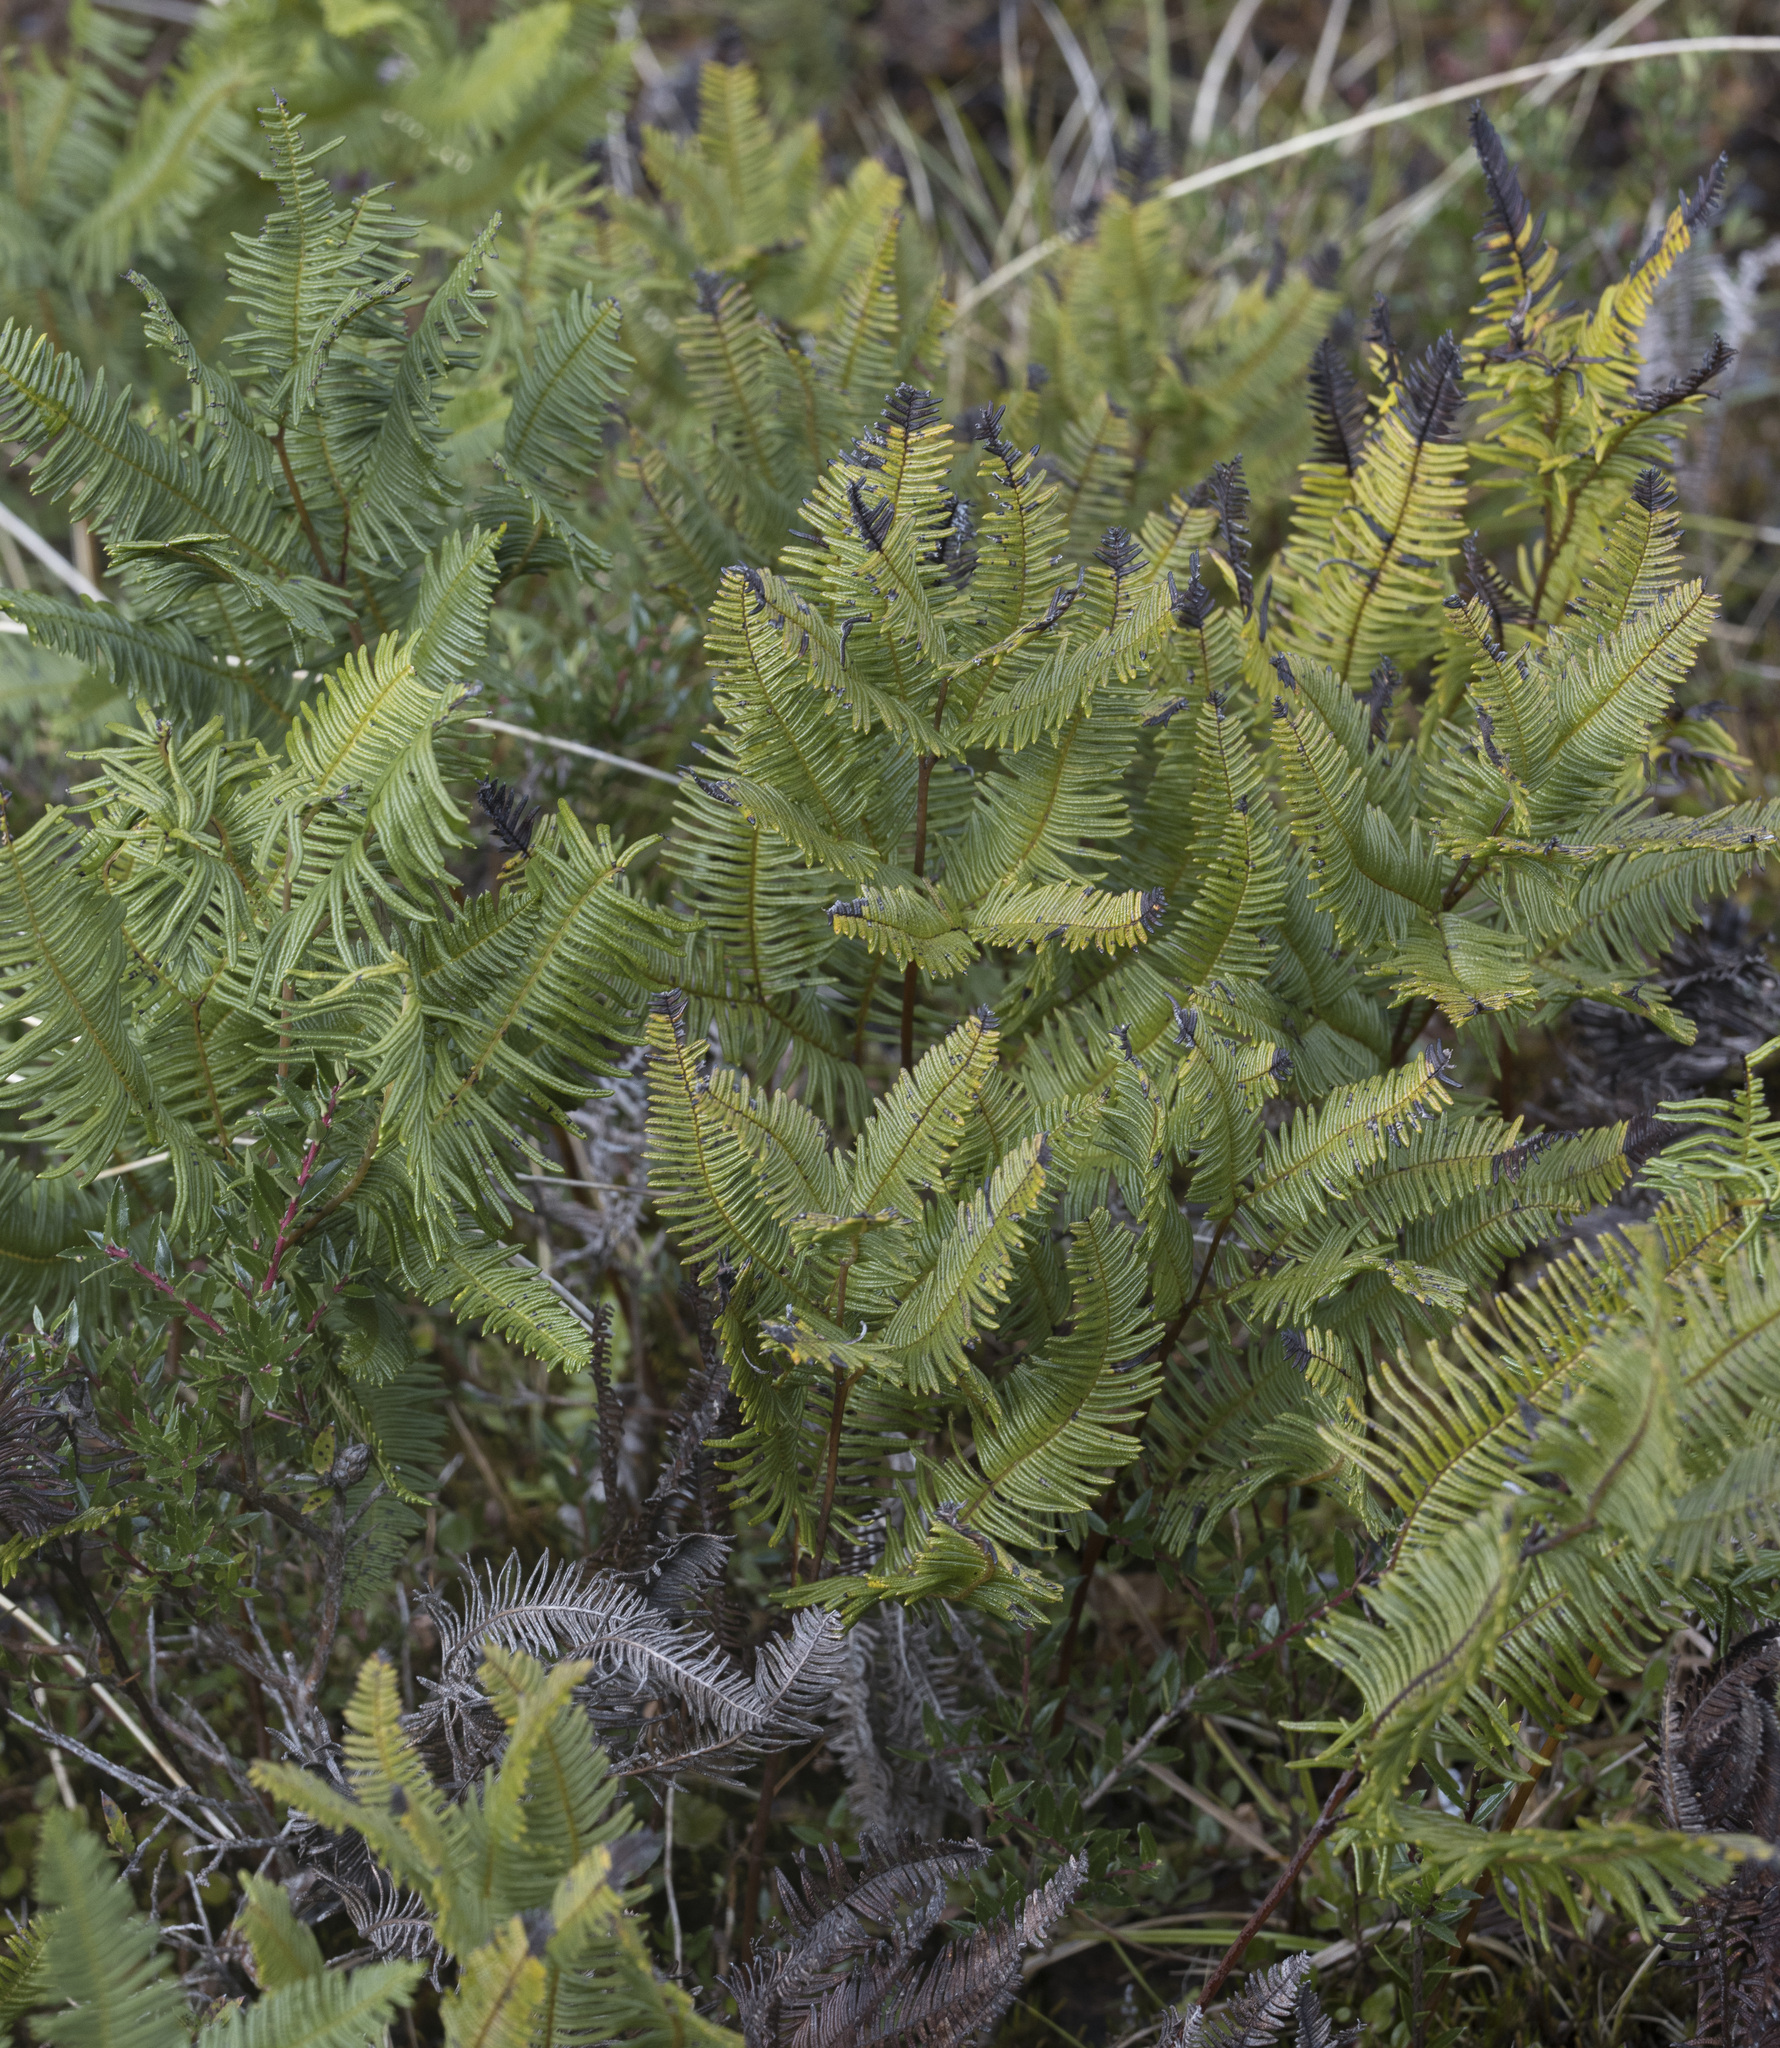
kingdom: Plantae
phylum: Tracheophyta
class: Polypodiopsida
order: Gleicheniales
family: Gleicheniaceae
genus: Sticherus
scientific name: Sticherus cryptocarpus
